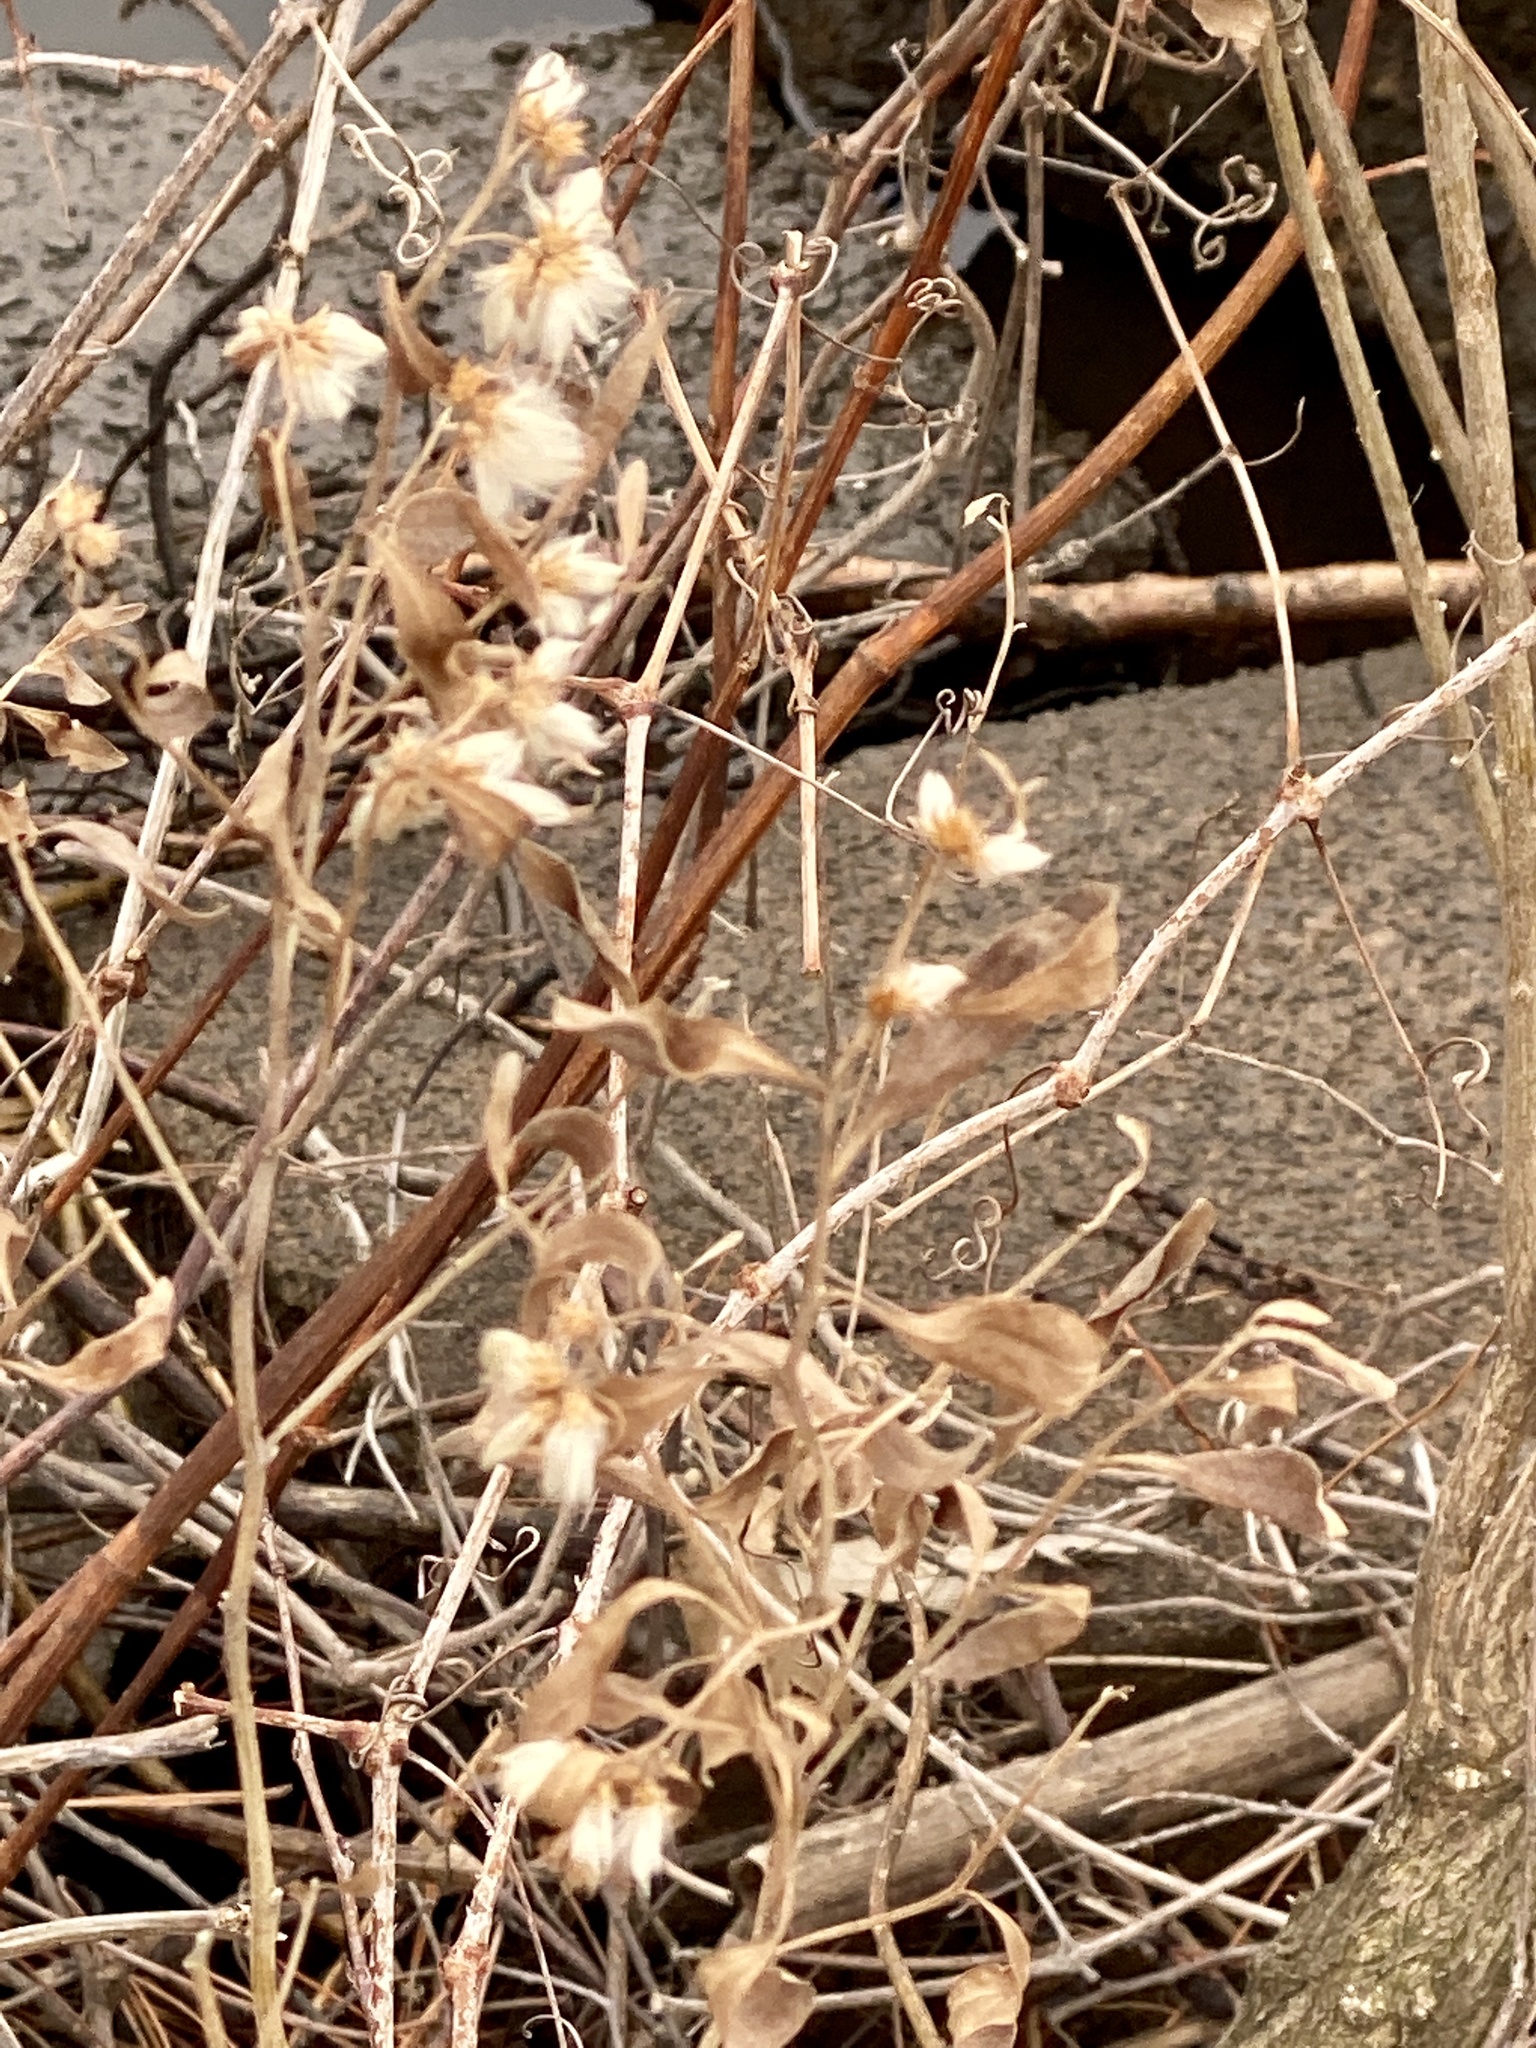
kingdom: Plantae
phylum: Tracheophyta
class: Magnoliopsida
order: Asterales
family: Asteraceae
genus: Baccharis
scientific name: Baccharis halimifolia
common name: Eastern baccharis
